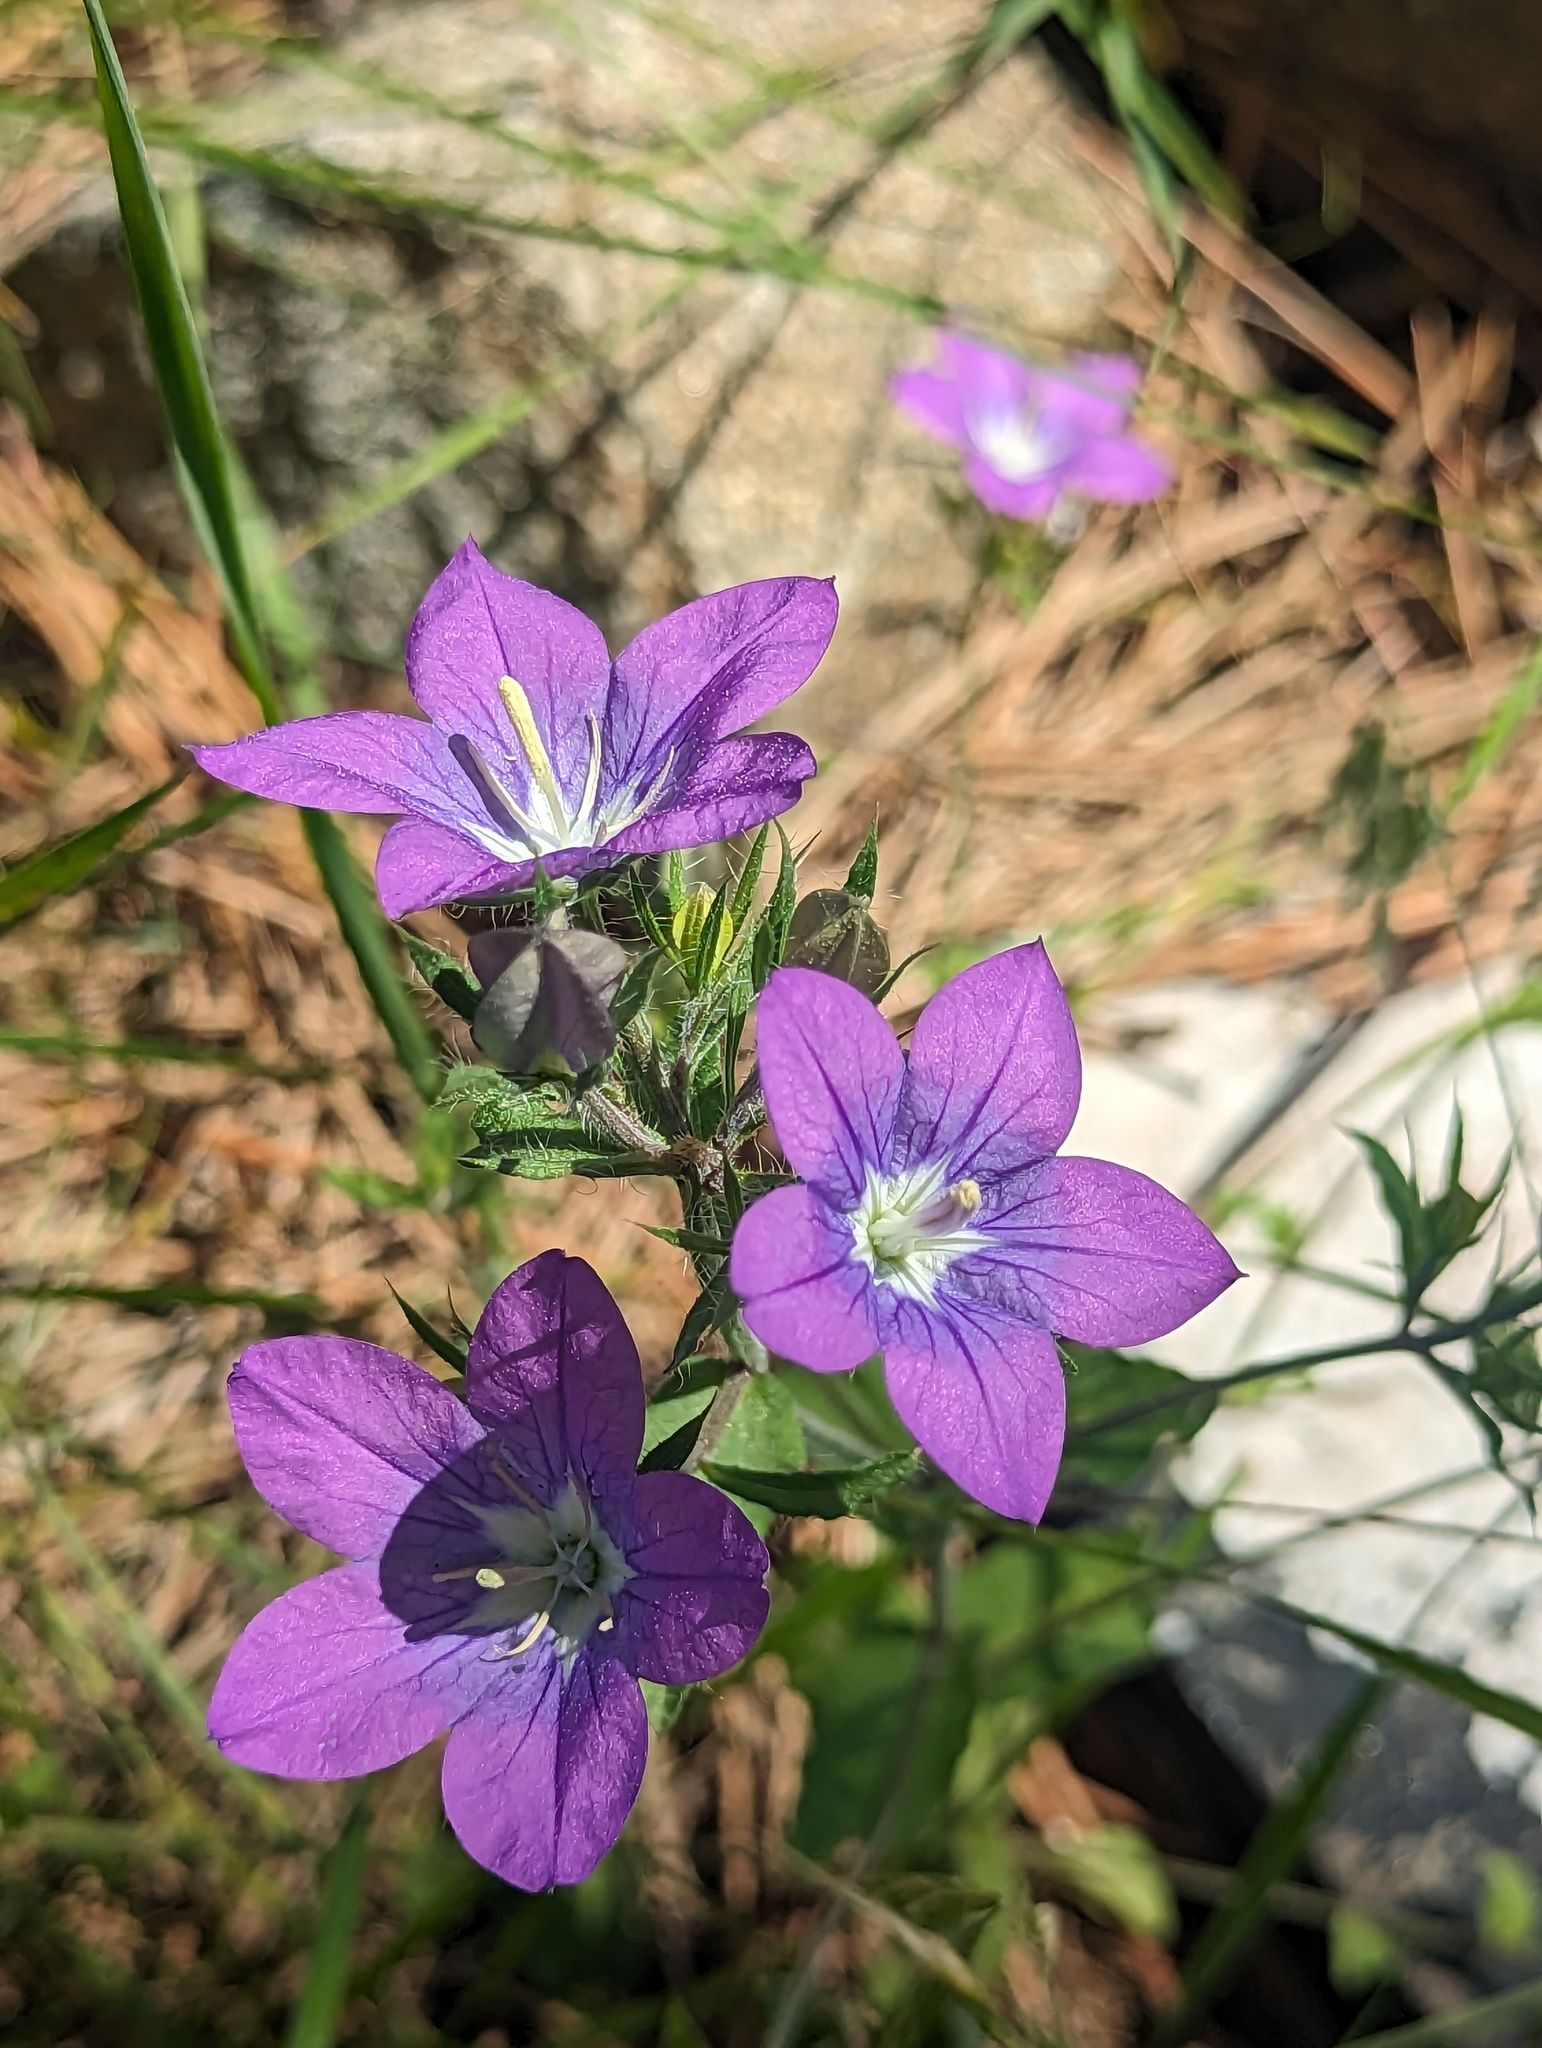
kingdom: Plantae
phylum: Tracheophyta
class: Magnoliopsida
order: Asterales
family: Campanulaceae
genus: Legousia
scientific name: Legousia pentagonia
